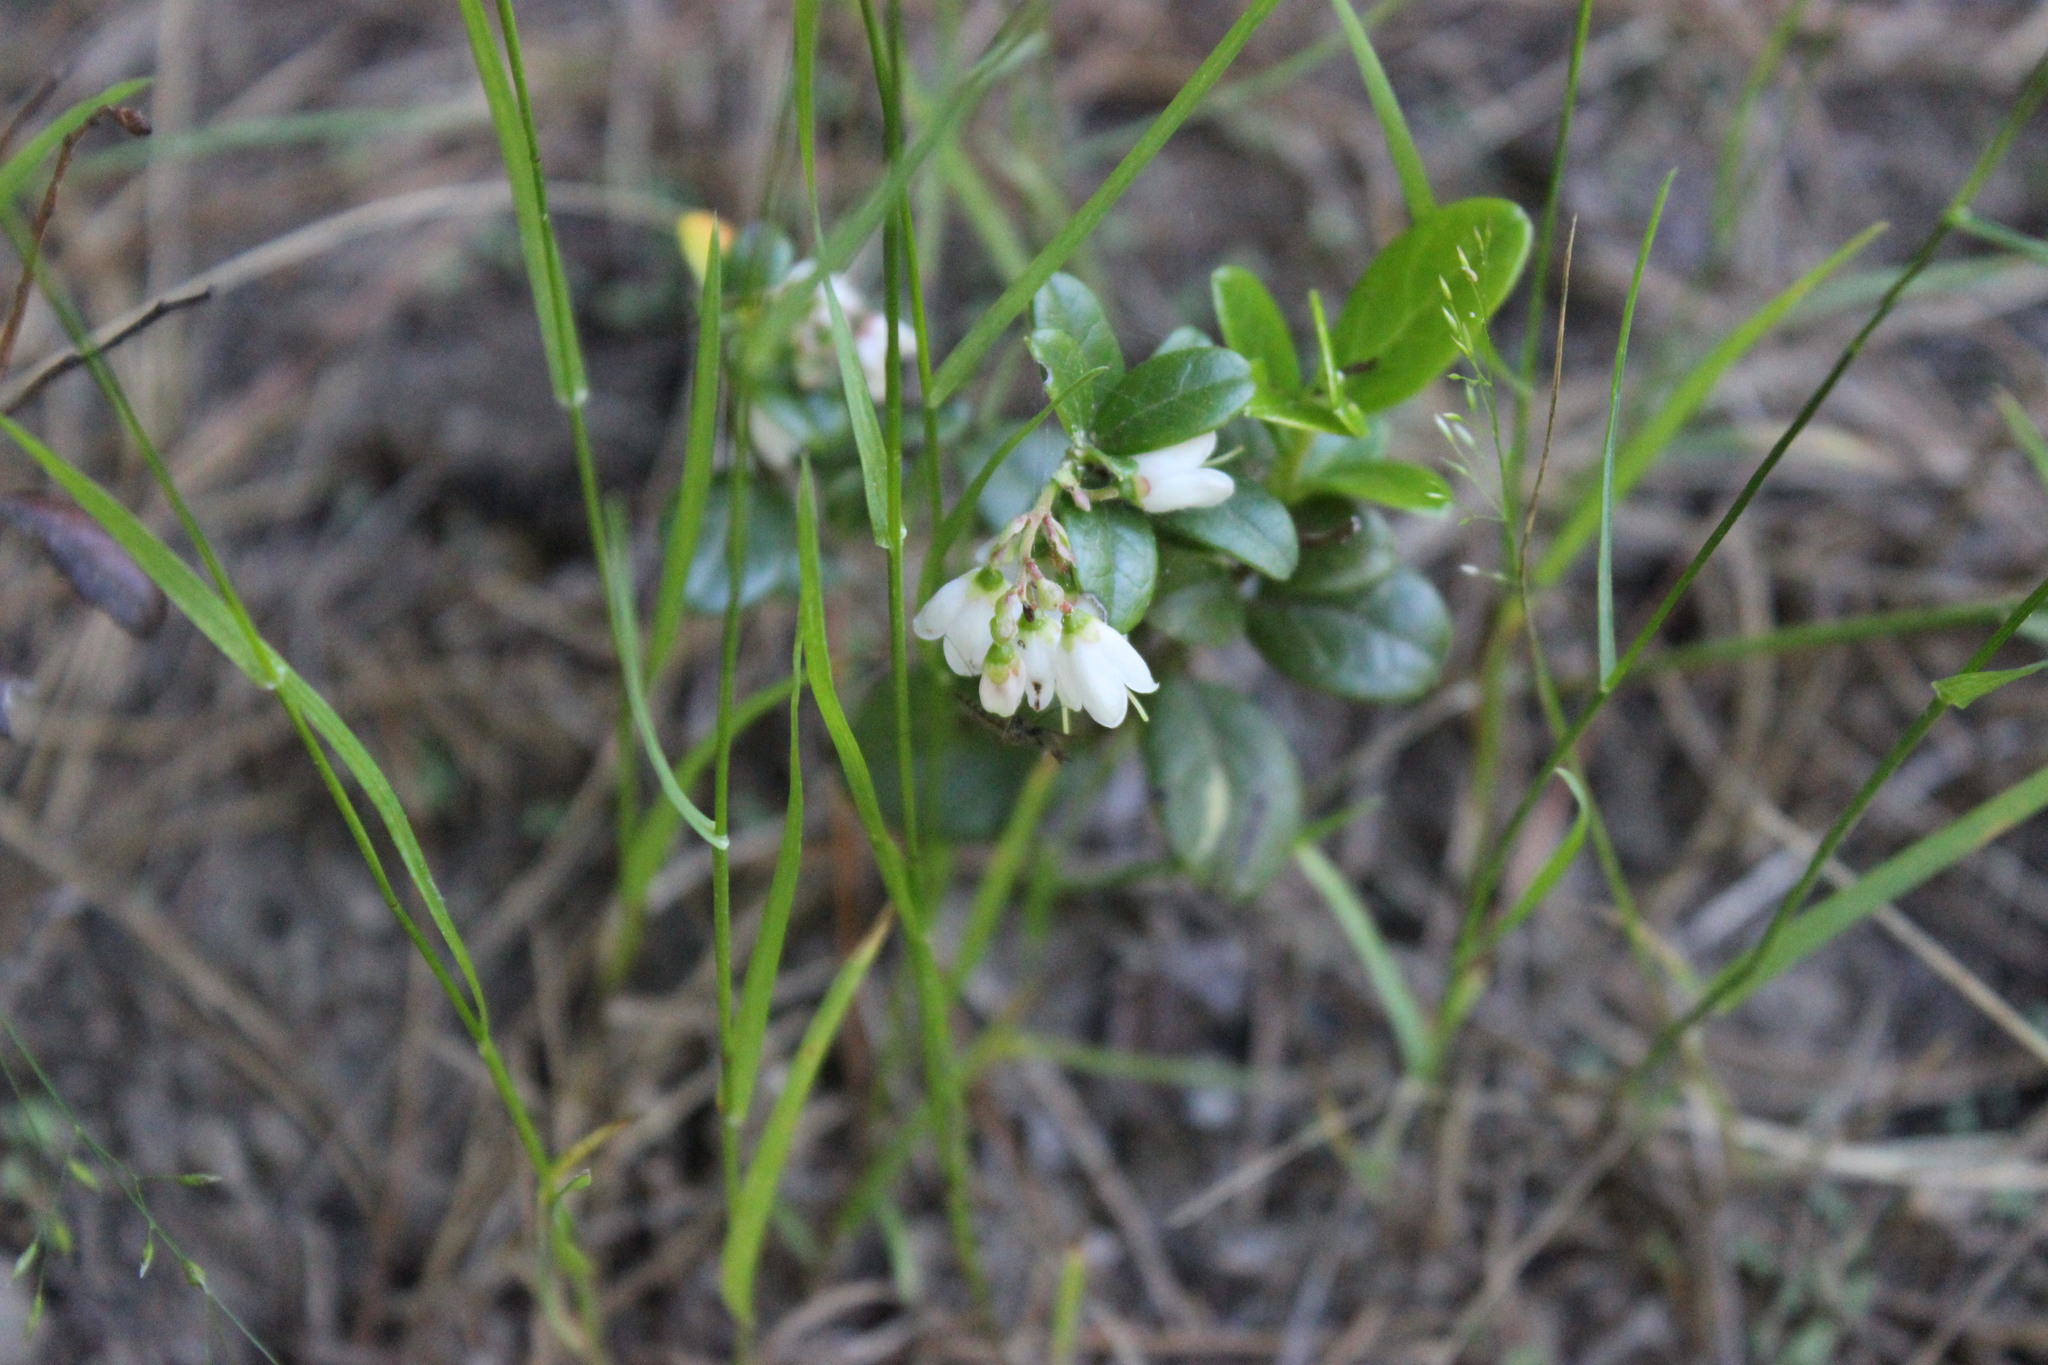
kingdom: Plantae
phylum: Tracheophyta
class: Magnoliopsida
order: Ericales
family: Ericaceae
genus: Vaccinium
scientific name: Vaccinium vitis-idaea
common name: Cowberry
